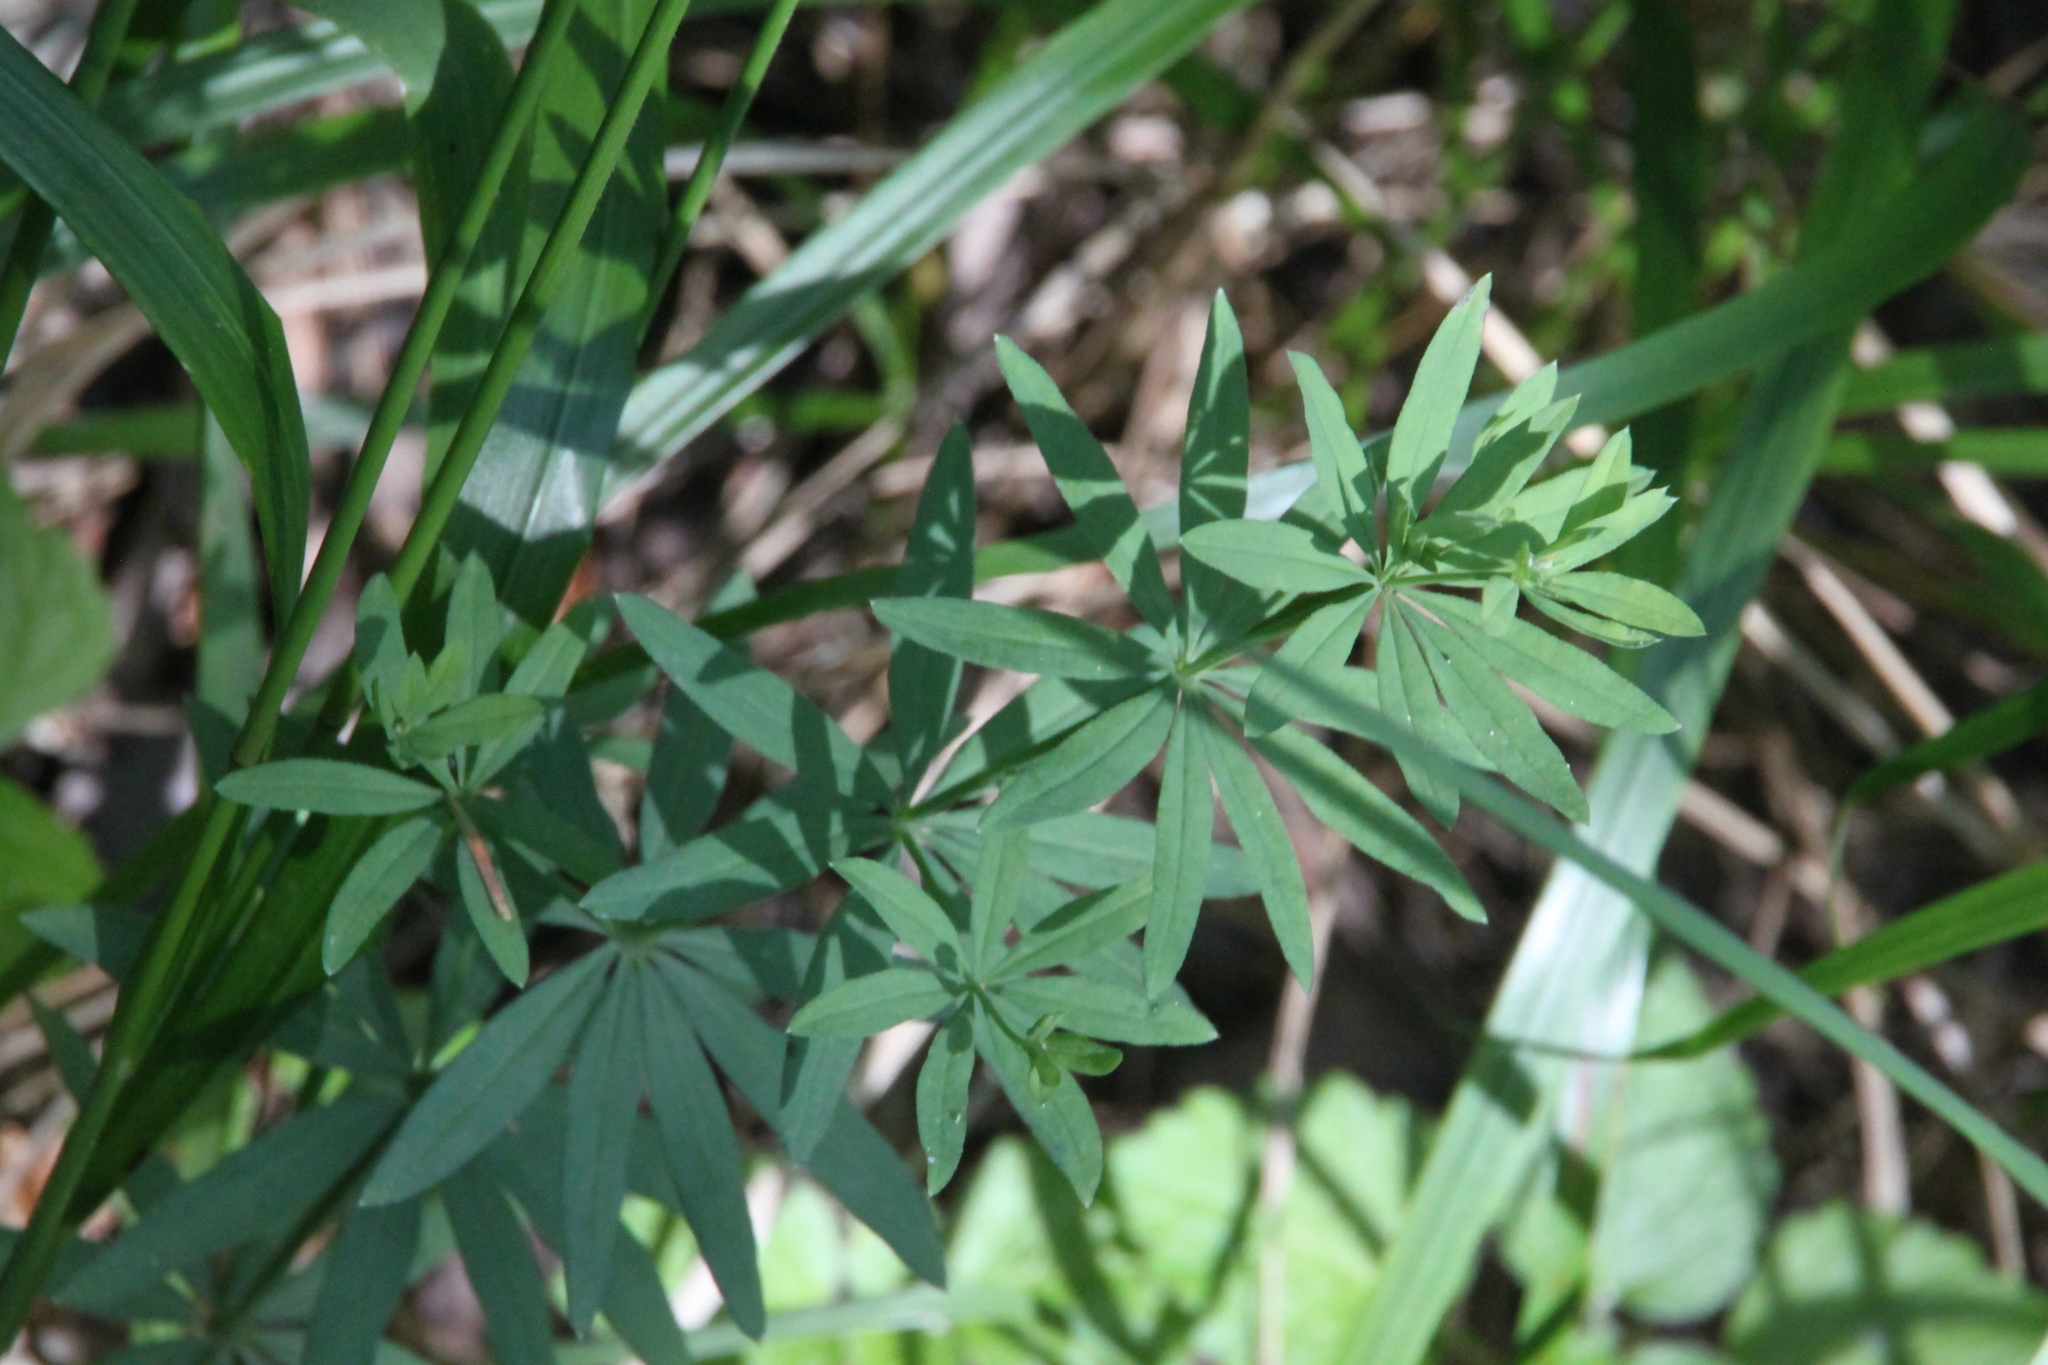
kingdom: Plantae
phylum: Tracheophyta
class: Magnoliopsida
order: Gentianales
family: Rubiaceae
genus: Galium
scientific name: Galium intermedium
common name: Bedstraw
